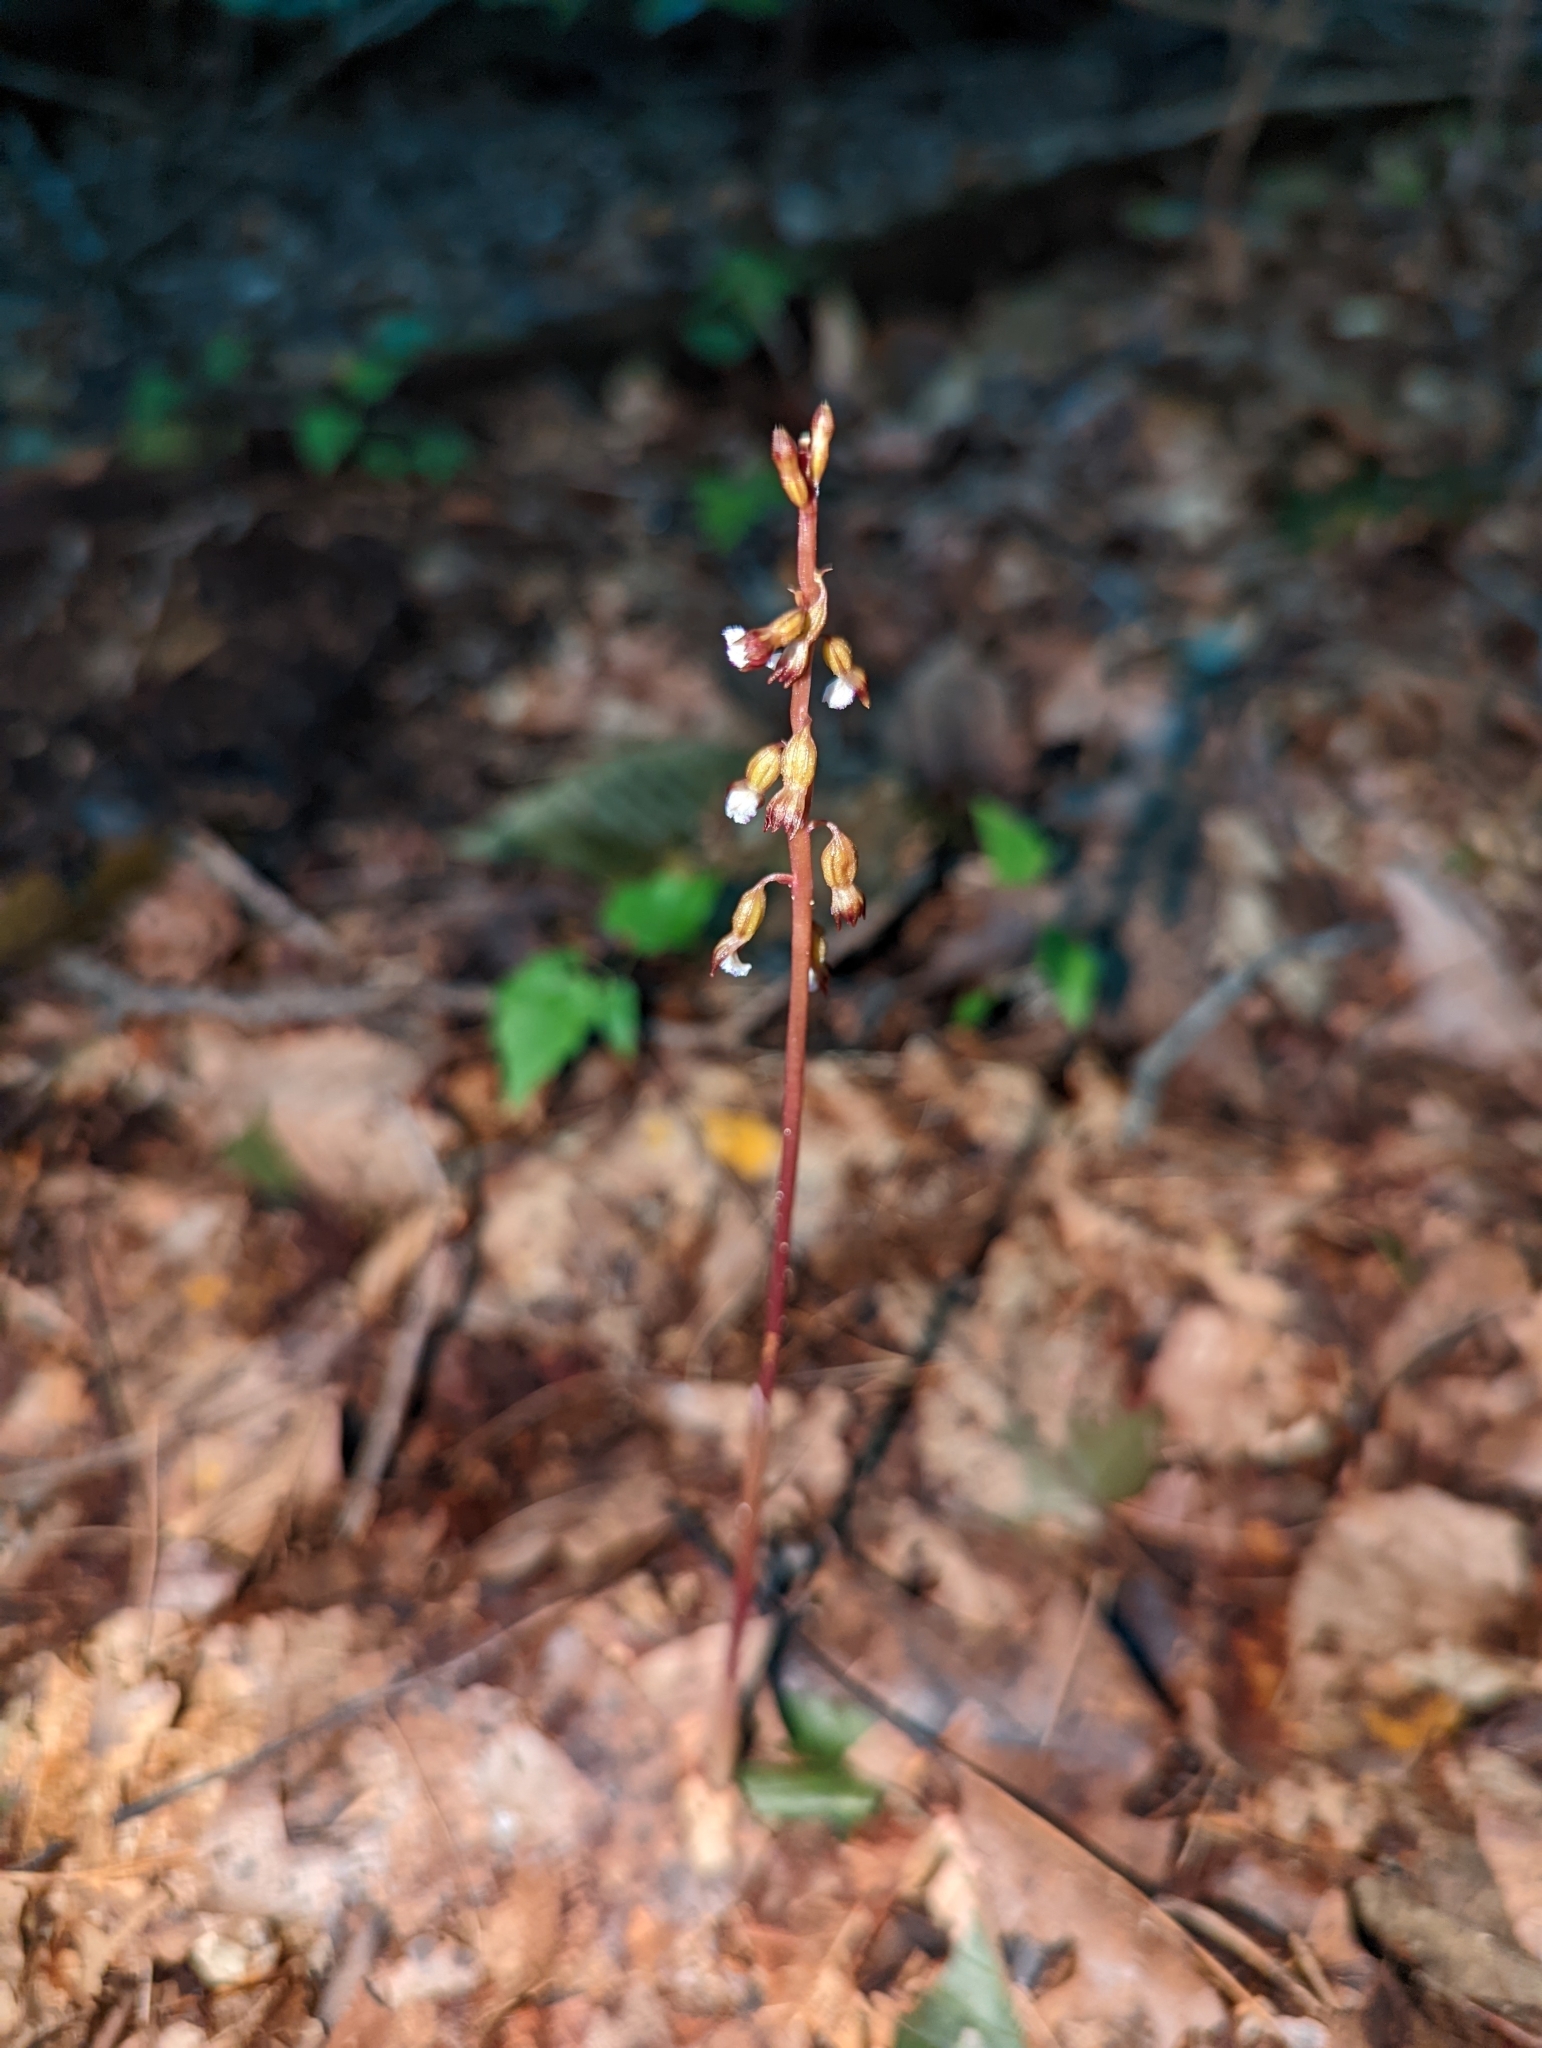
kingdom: Plantae
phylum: Tracheophyta
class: Liliopsida
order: Asparagales
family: Orchidaceae
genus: Corallorhiza
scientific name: Corallorhiza odontorhiza
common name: Autumn coralroot
